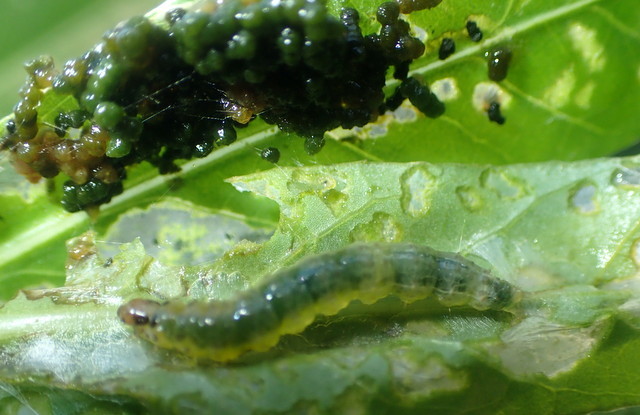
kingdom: Animalia
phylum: Arthropoda
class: Insecta
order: Lepidoptera
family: Crambidae
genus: Herpetogramma
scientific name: Herpetogramma bipunctalis
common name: Southern beet webworm
